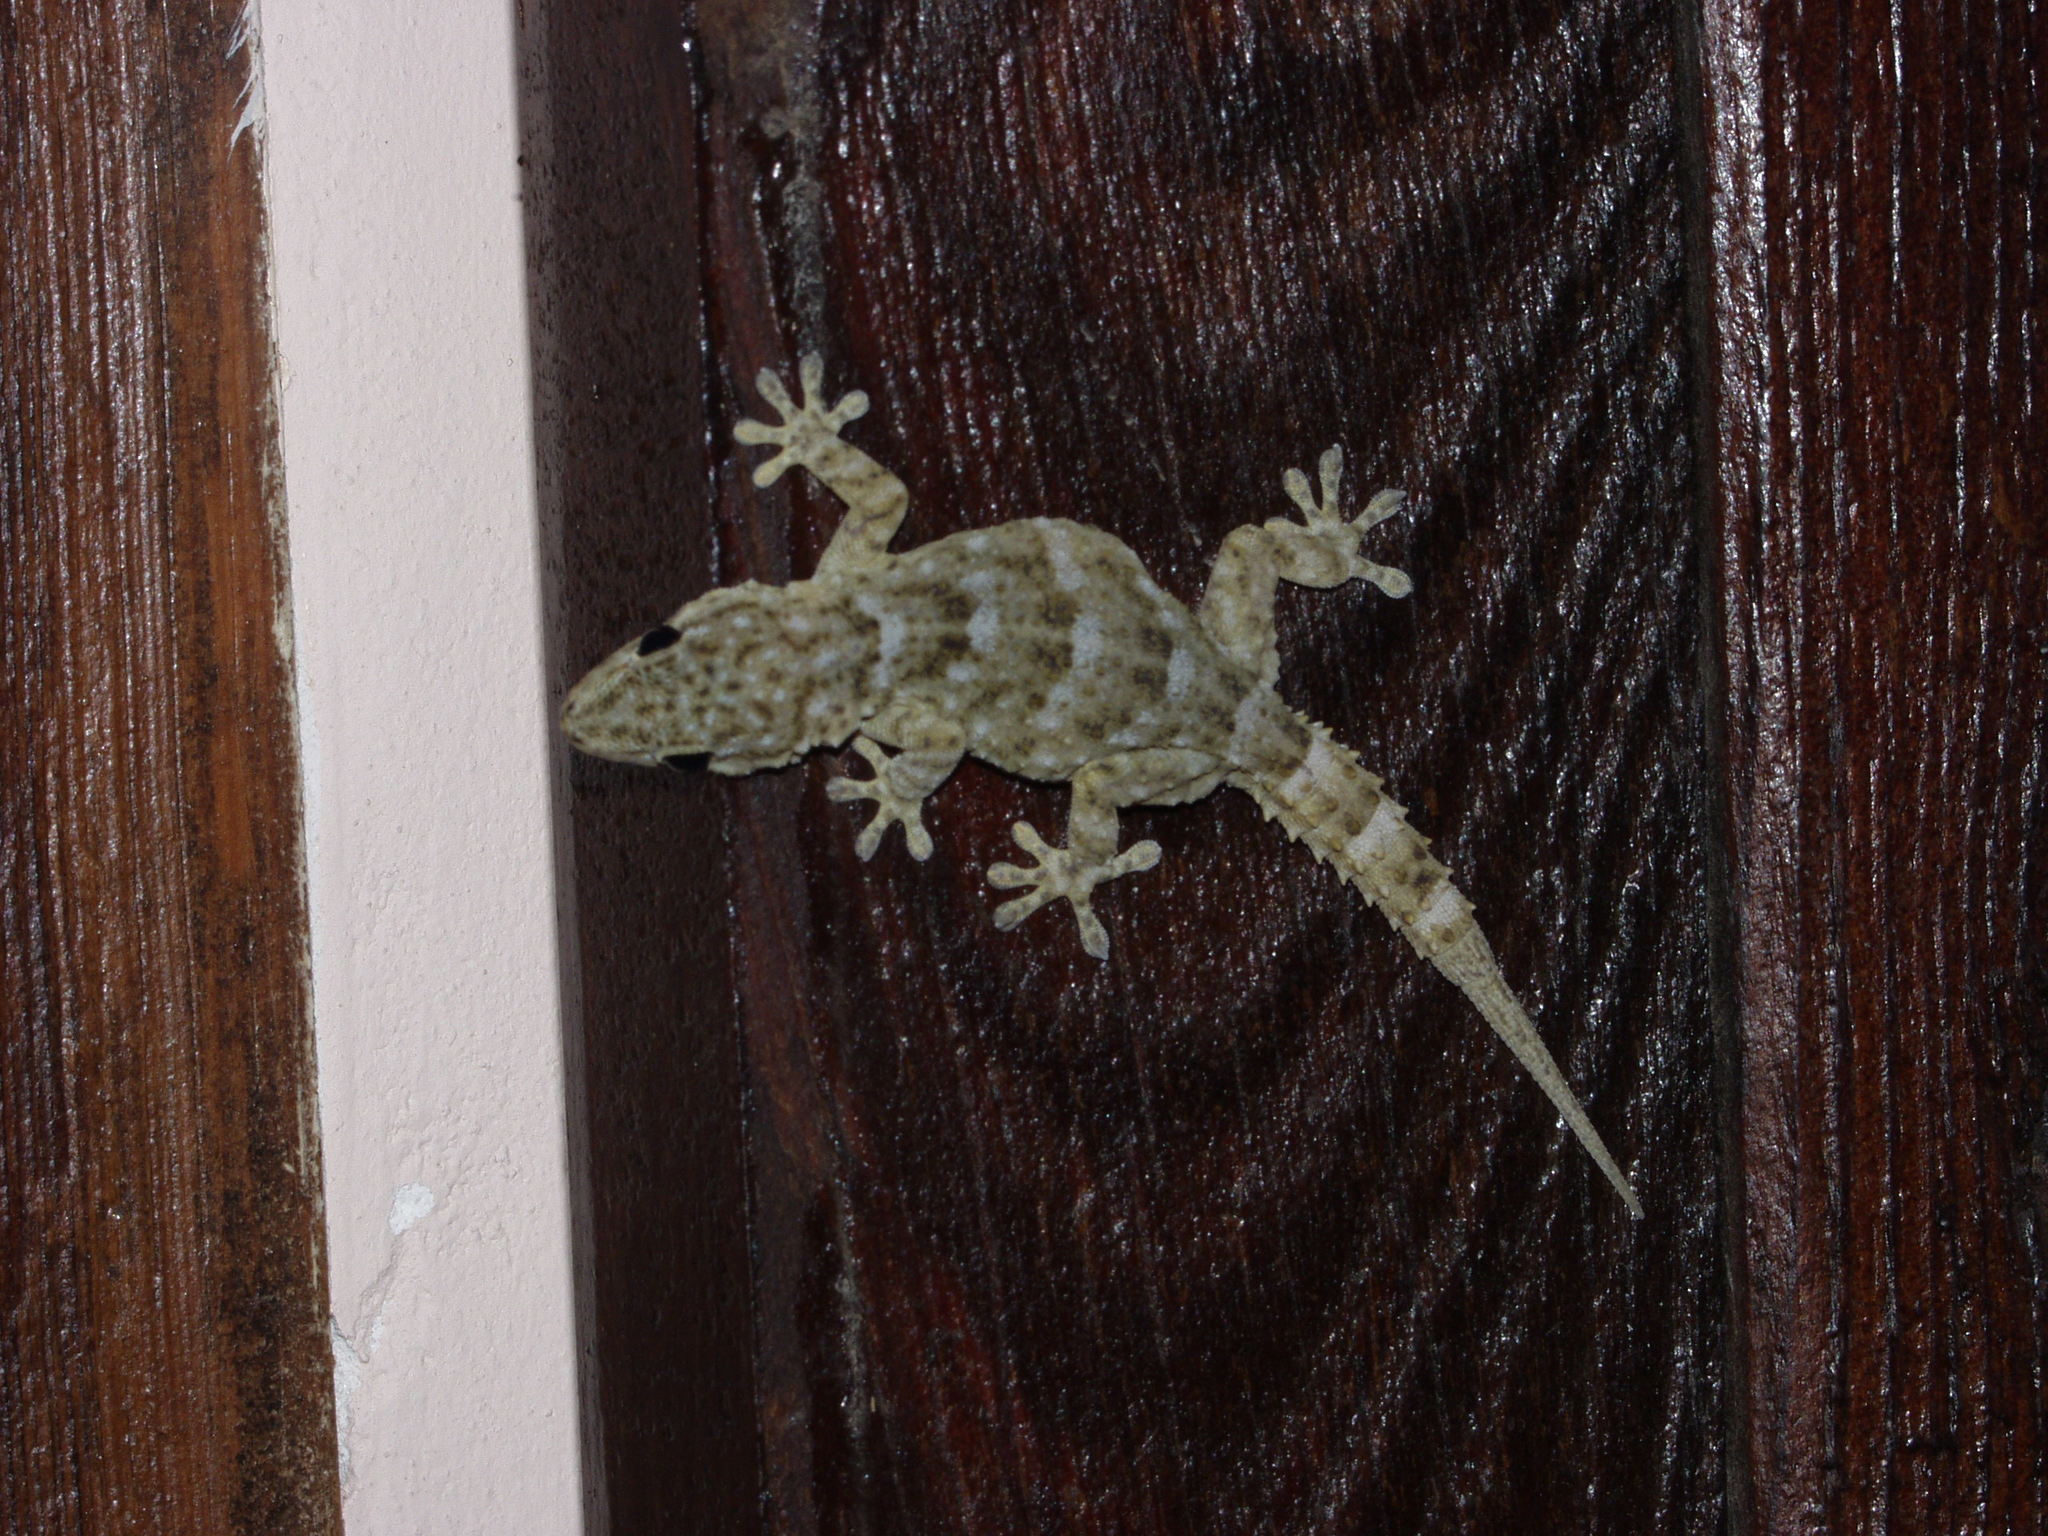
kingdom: Animalia
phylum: Chordata
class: Squamata
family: Phyllodactylidae
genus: Tarentola
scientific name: Tarentola delalandii
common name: Tenerife wall gecko
